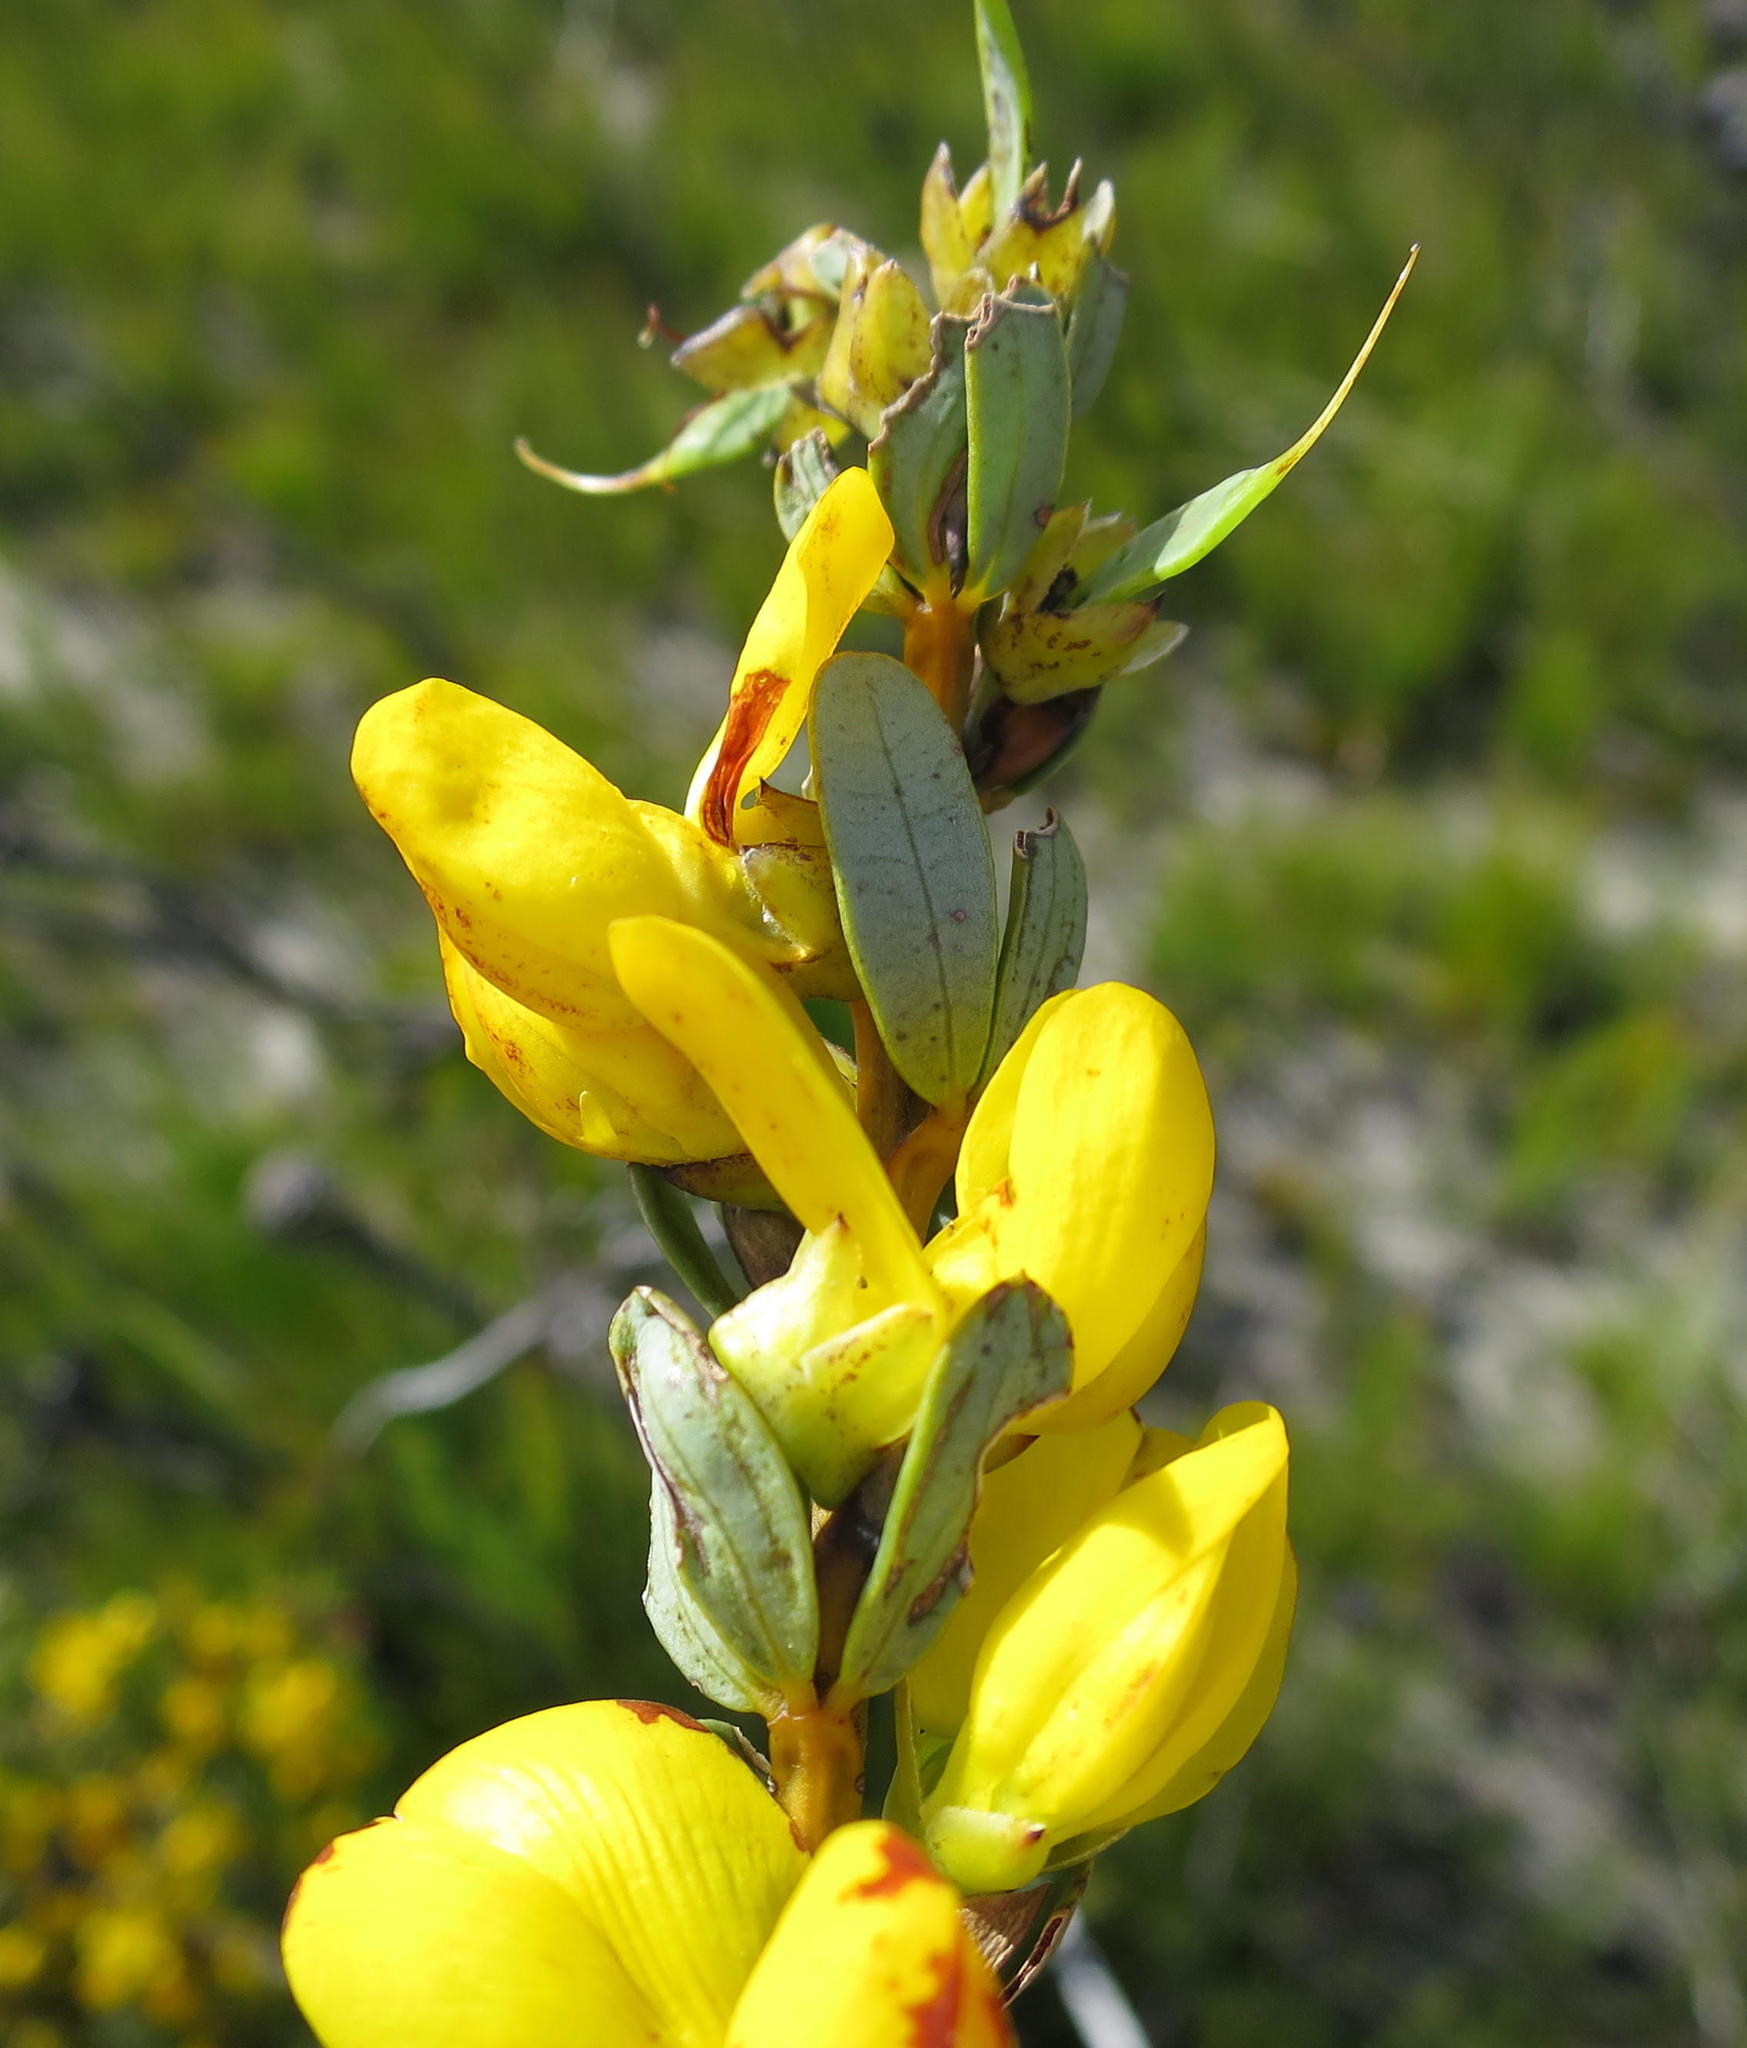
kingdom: Plantae
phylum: Tracheophyta
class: Magnoliopsida
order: Fabales
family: Fabaceae
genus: Cyclopia
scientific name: Cyclopia intermedia
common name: Mountain tea
